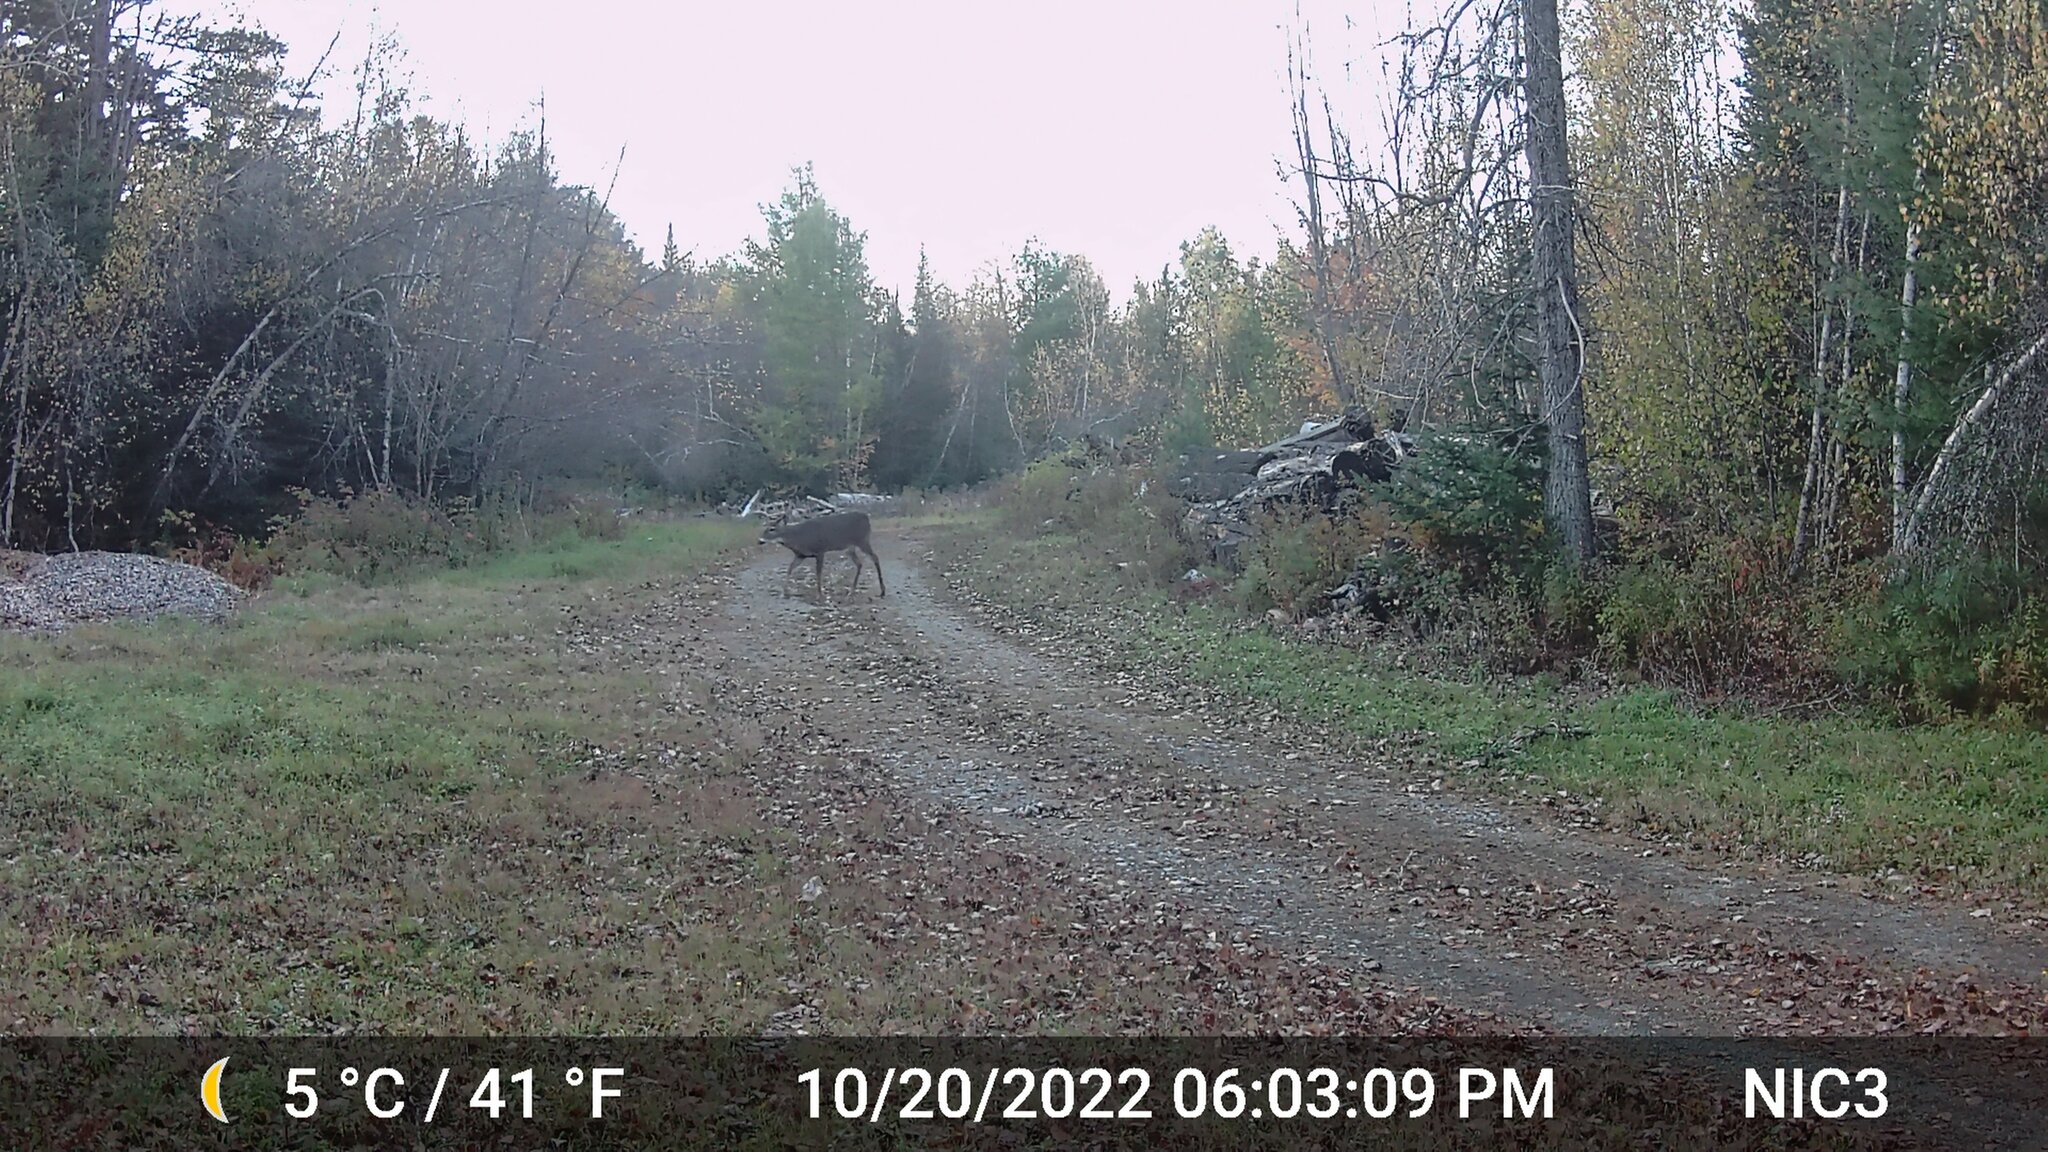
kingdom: Animalia
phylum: Chordata
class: Mammalia
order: Artiodactyla
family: Cervidae
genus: Odocoileus
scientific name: Odocoileus virginianus
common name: White-tailed deer
